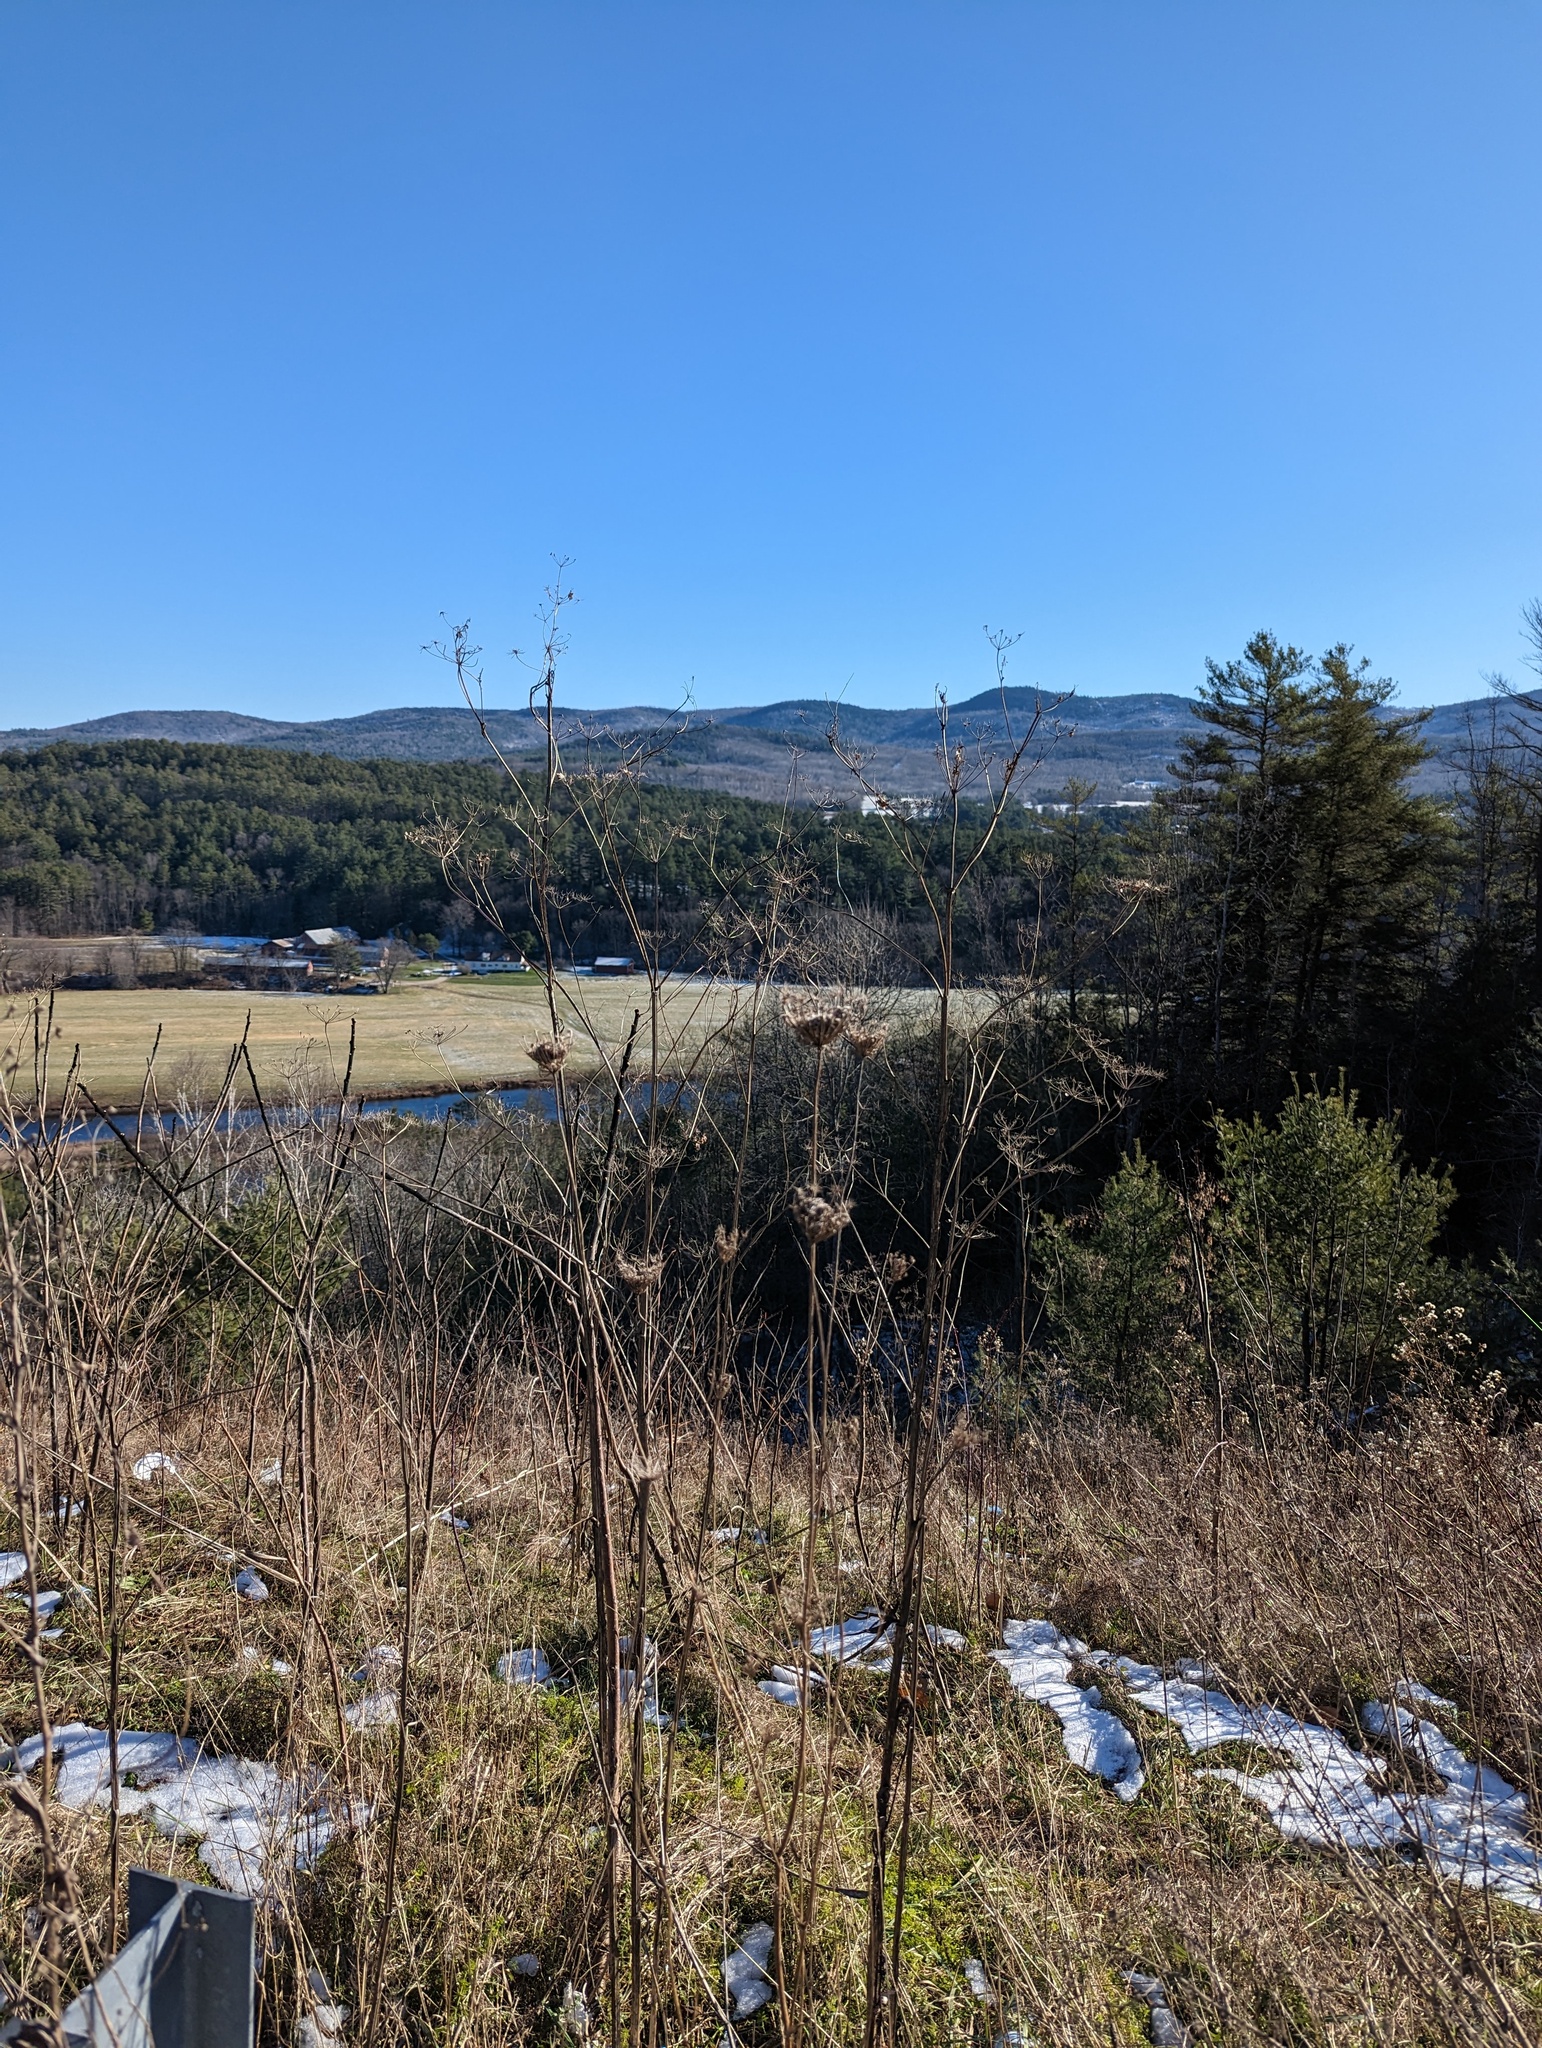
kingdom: Plantae
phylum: Tracheophyta
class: Magnoliopsida
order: Apiales
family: Apiaceae
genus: Daucus
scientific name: Daucus carota
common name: Wild carrot
